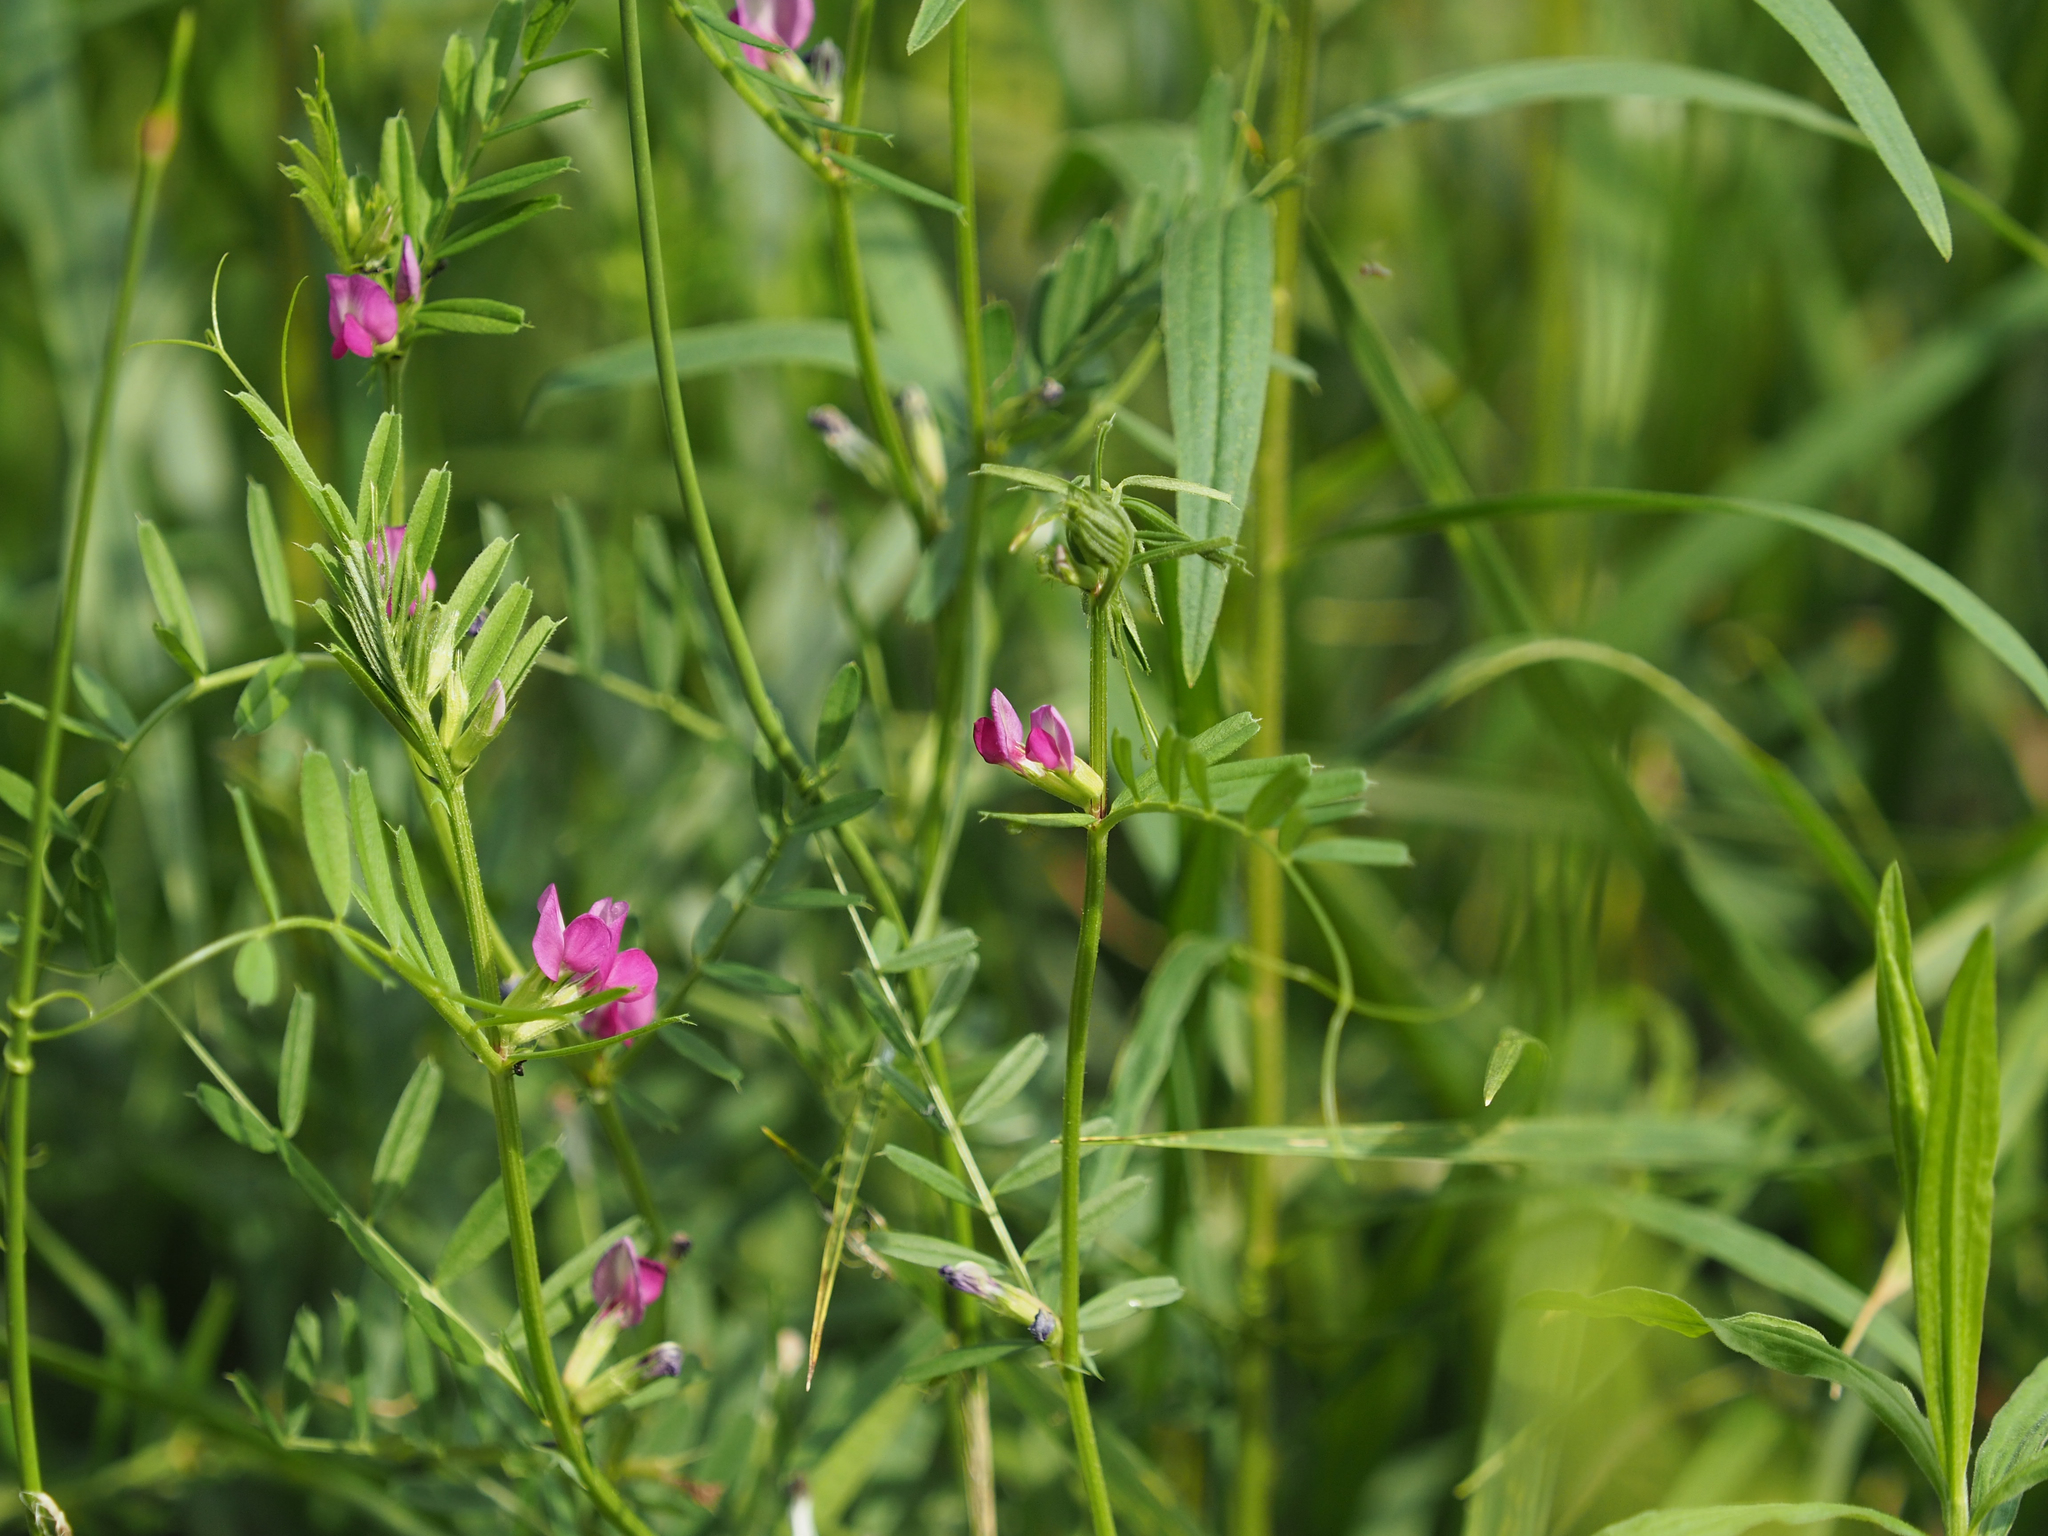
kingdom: Plantae
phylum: Tracheophyta
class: Magnoliopsida
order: Fabales
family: Fabaceae
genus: Vicia
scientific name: Vicia sativa
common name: Garden vetch
